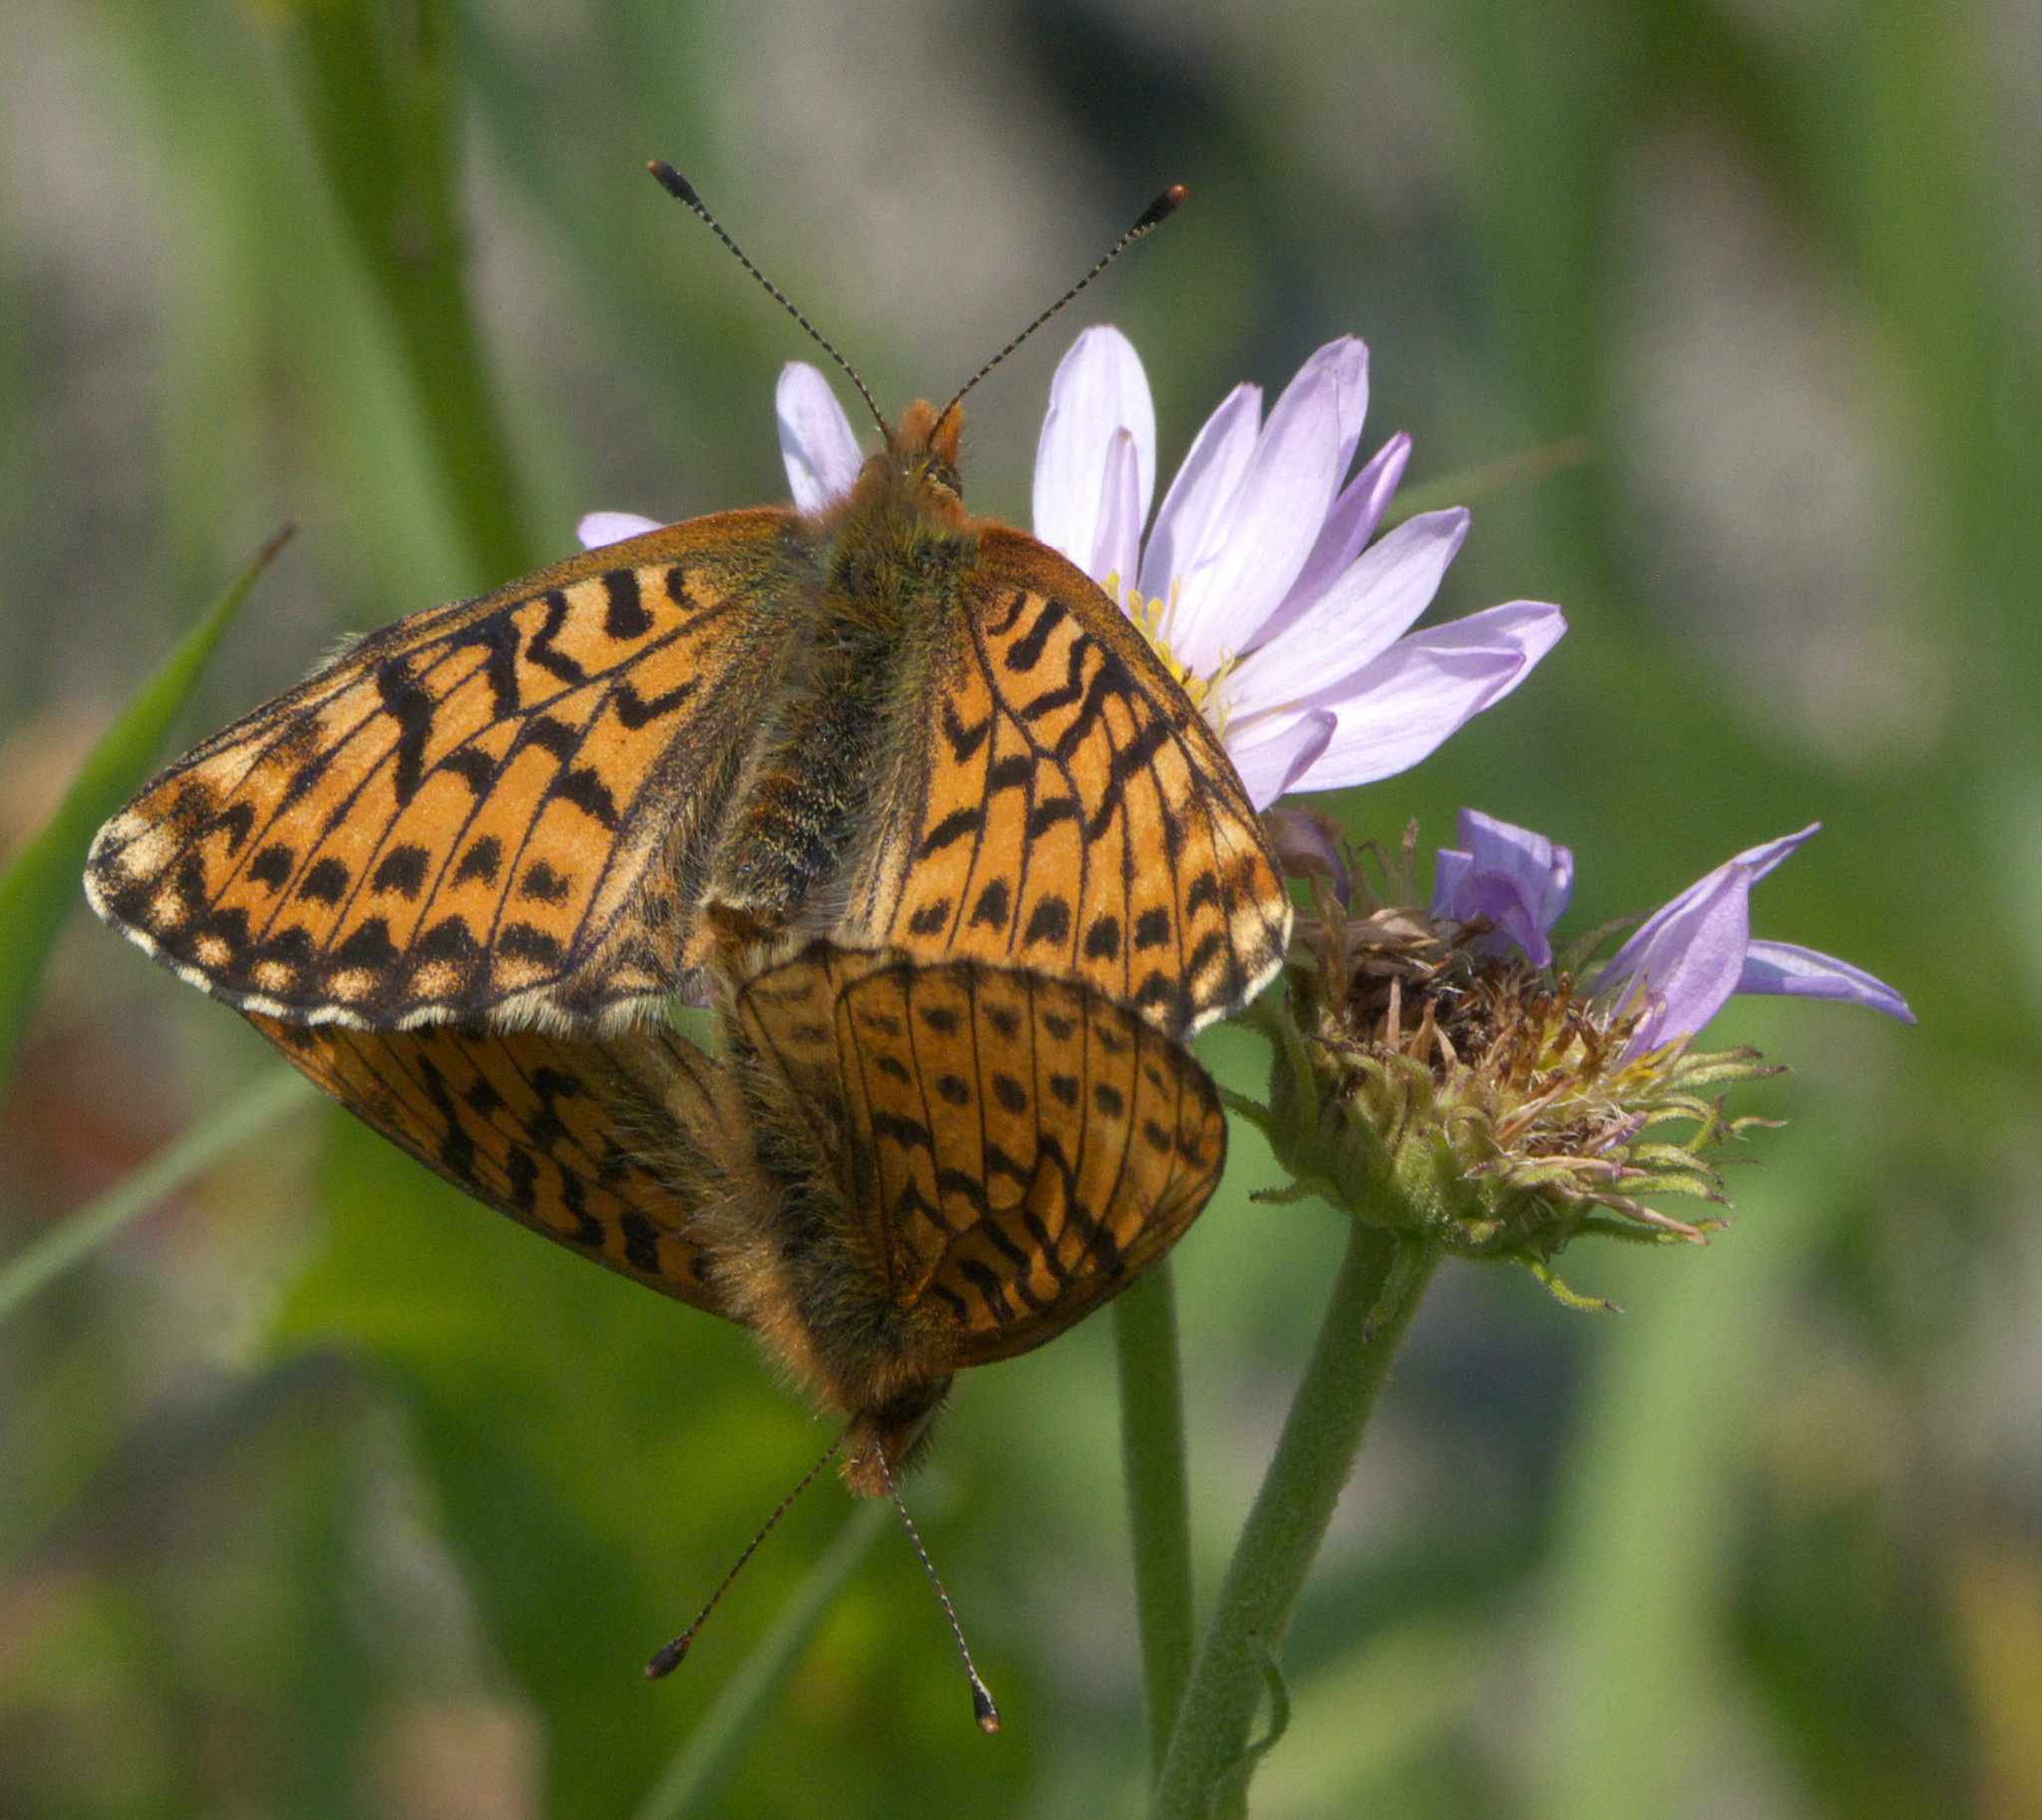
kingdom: Animalia
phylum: Arthropoda
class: Insecta
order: Lepidoptera
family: Nymphalidae
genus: Clossiana
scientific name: Clossiana helena
